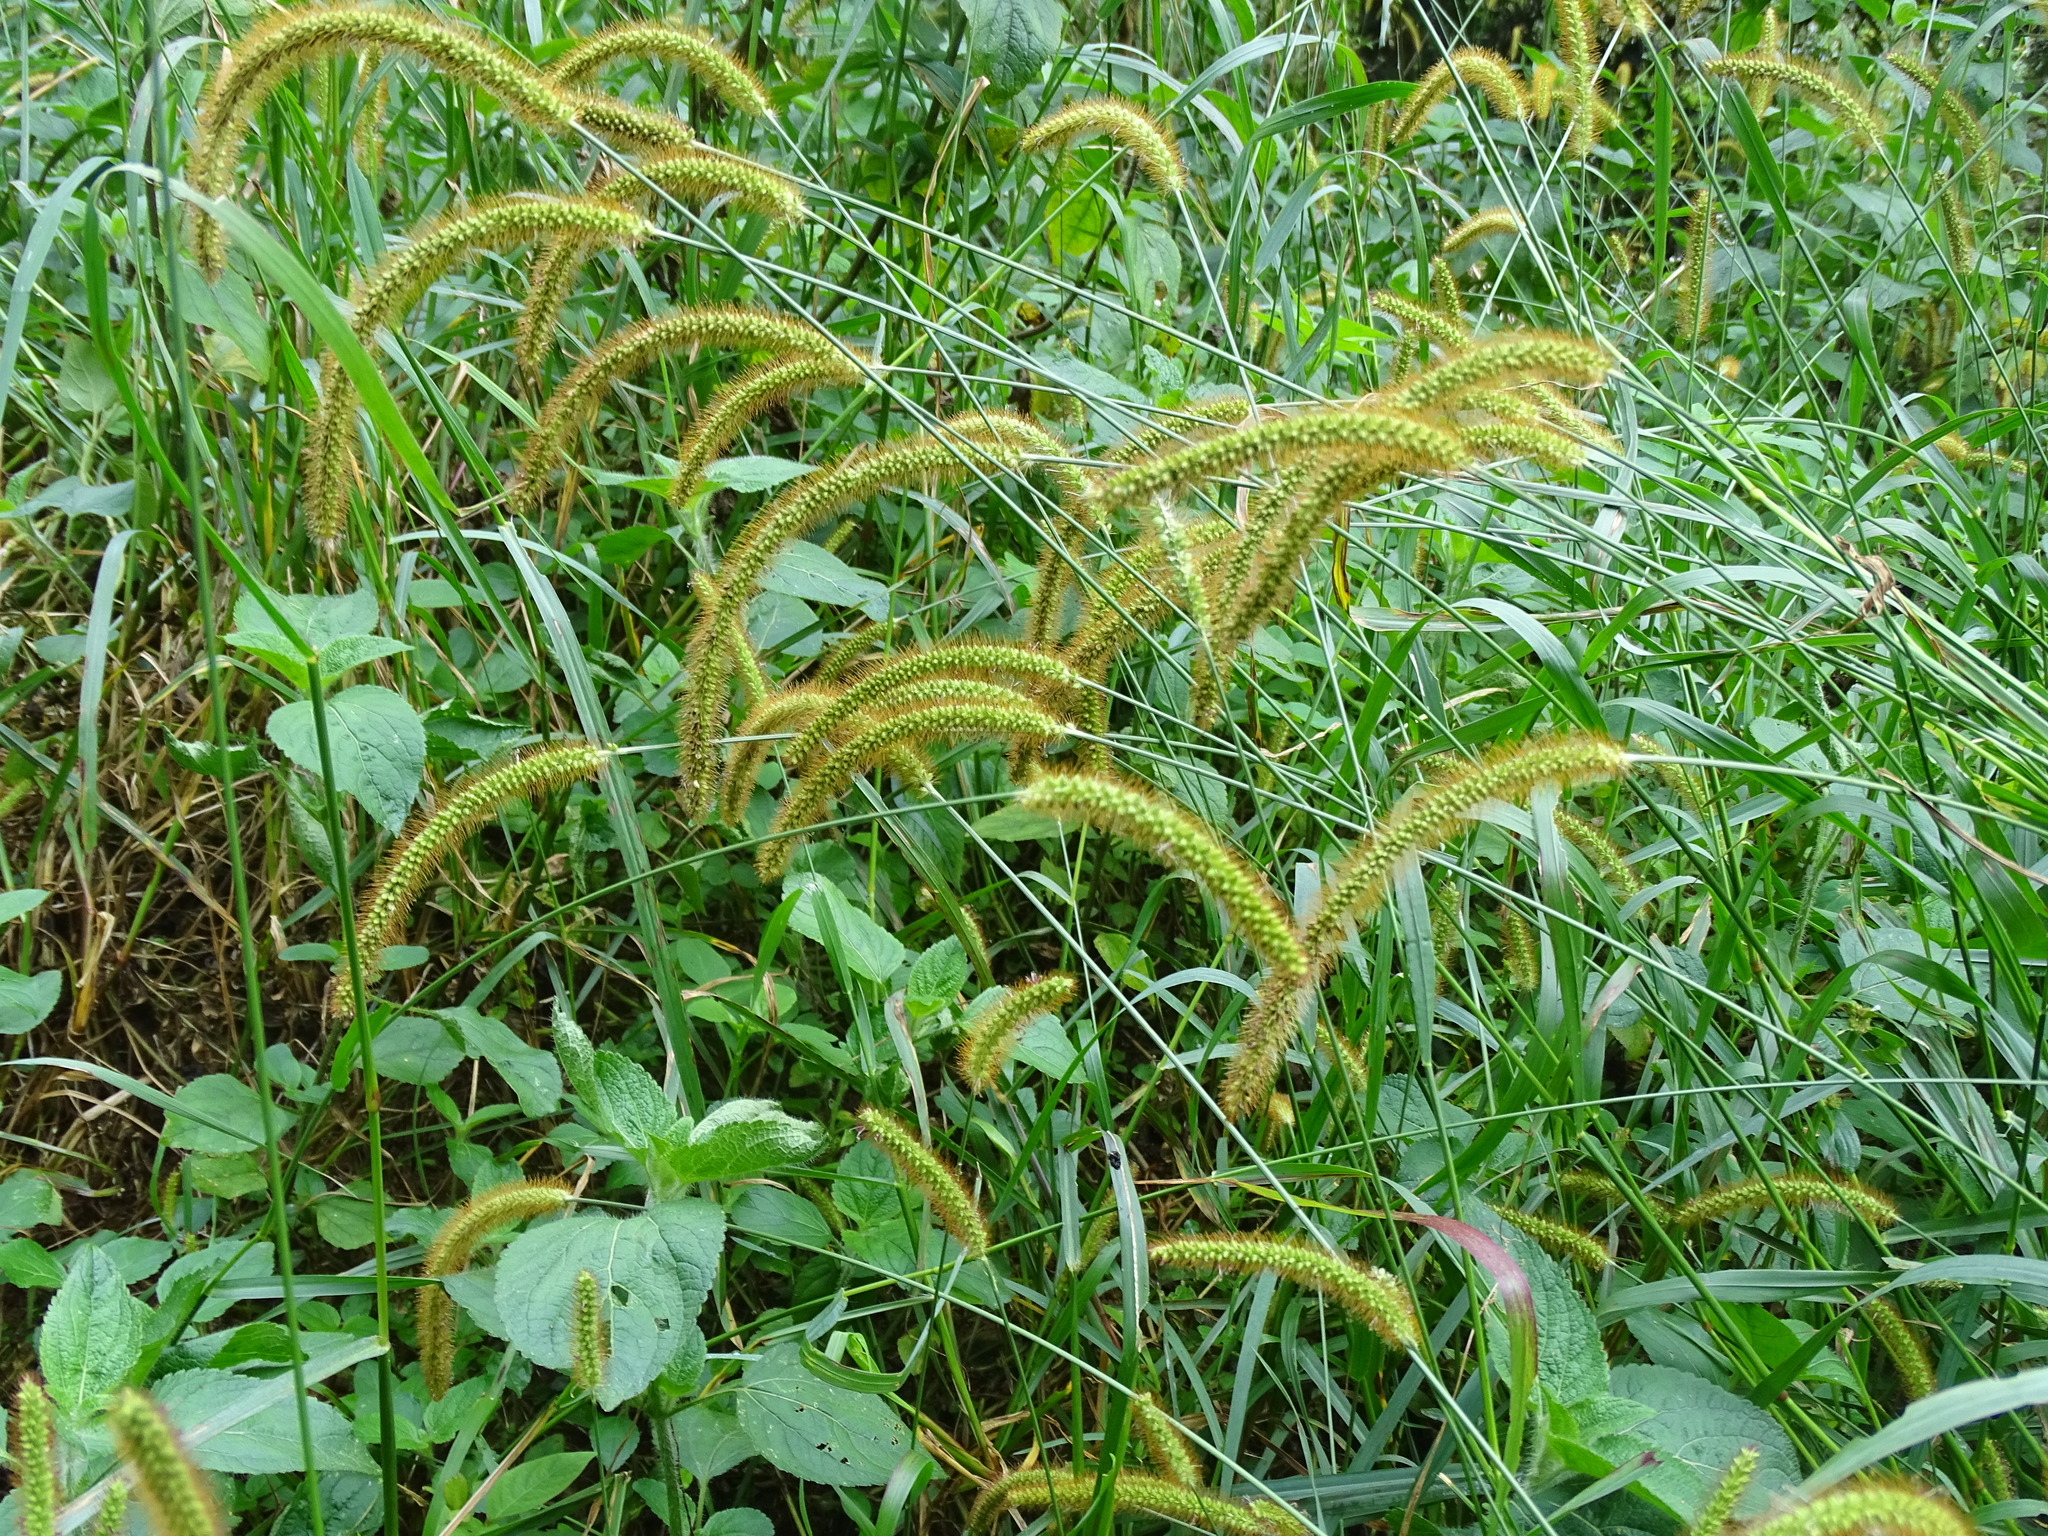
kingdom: Plantae
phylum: Tracheophyta
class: Liliopsida
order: Poales
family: Poaceae
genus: Setaria
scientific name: Setaria pumila
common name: Yellow bristle-grass
